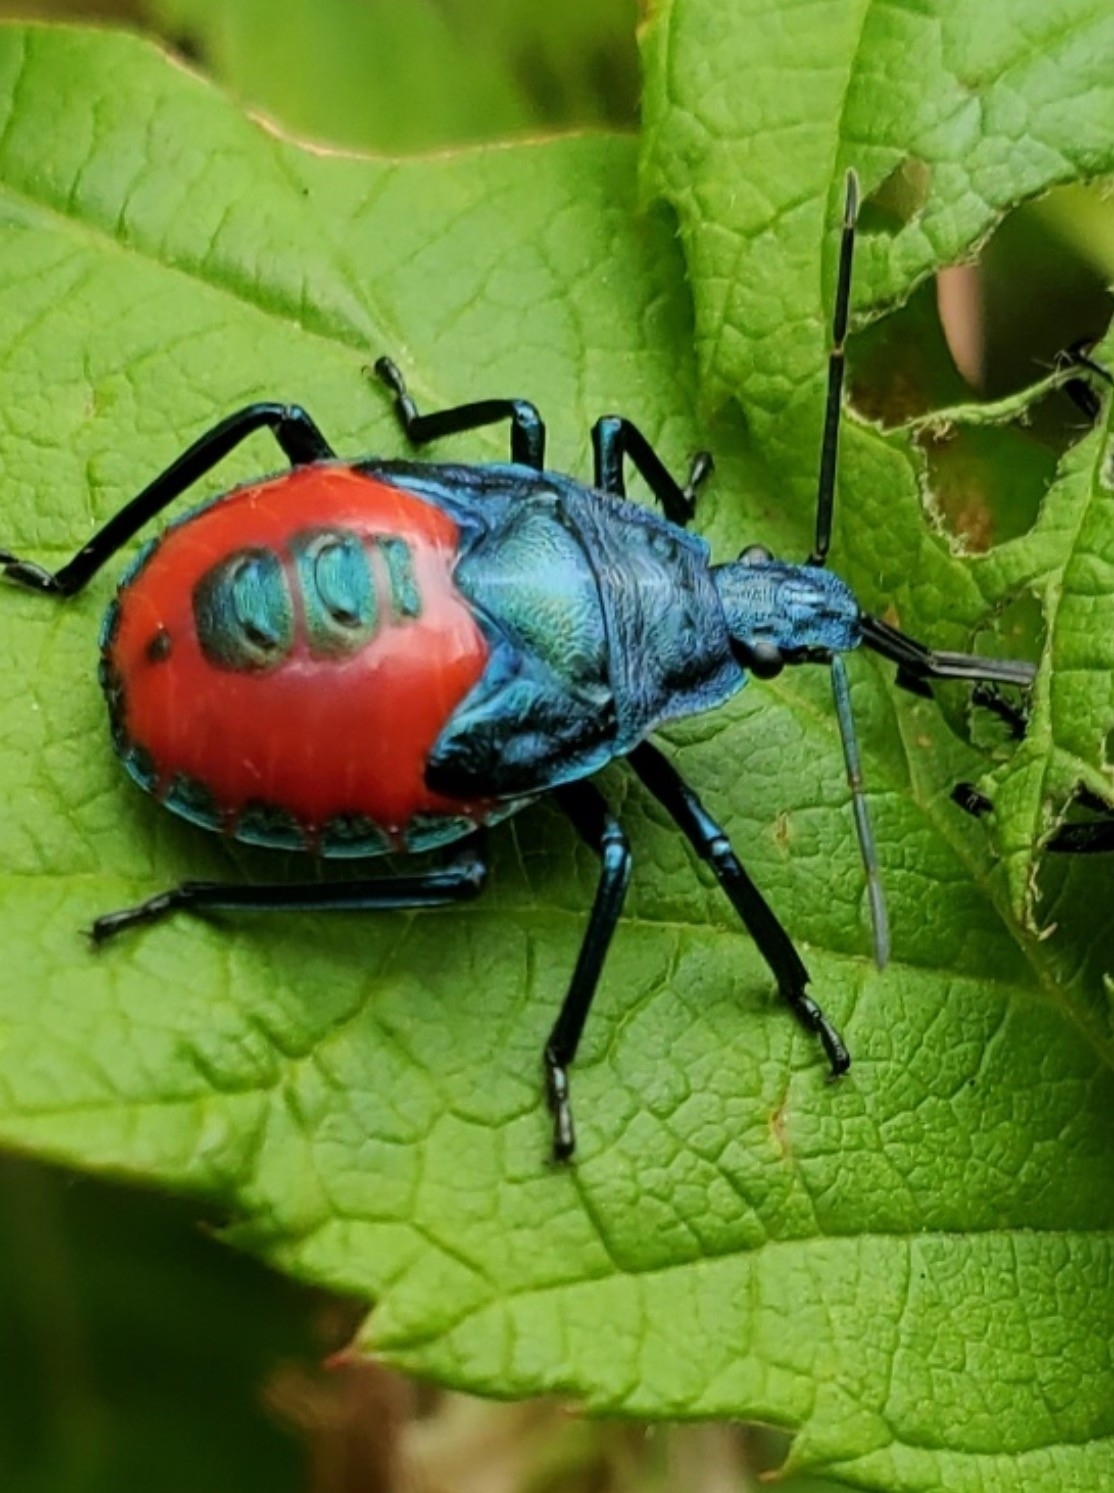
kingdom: Animalia
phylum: Arthropoda
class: Insecta
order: Hemiptera
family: Pentatomidae
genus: Euthyrhynchus
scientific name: Euthyrhynchus floridanus
